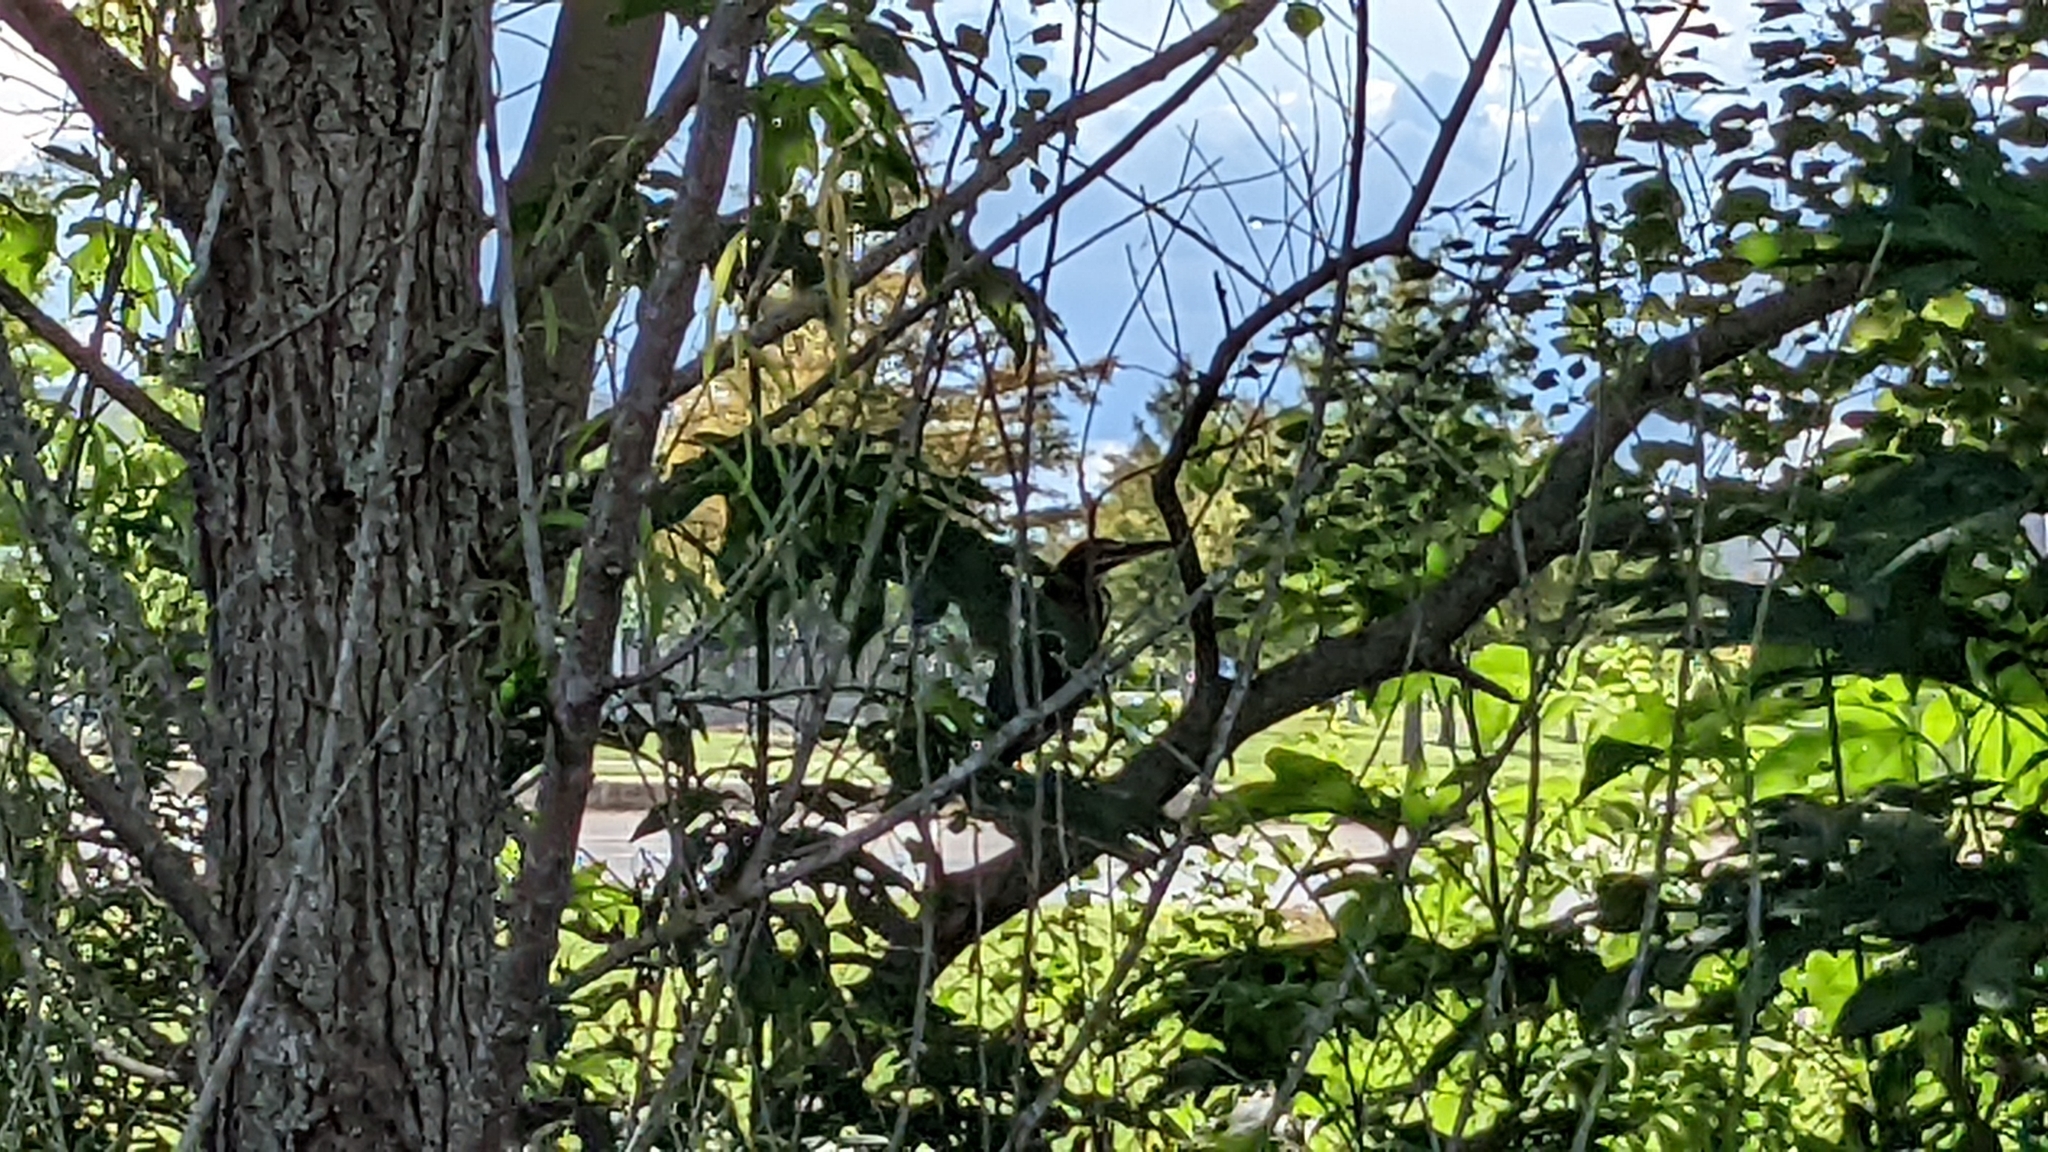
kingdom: Animalia
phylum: Chordata
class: Aves
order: Pelecaniformes
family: Ardeidae
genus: Butorides
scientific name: Butorides virescens
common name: Green heron
